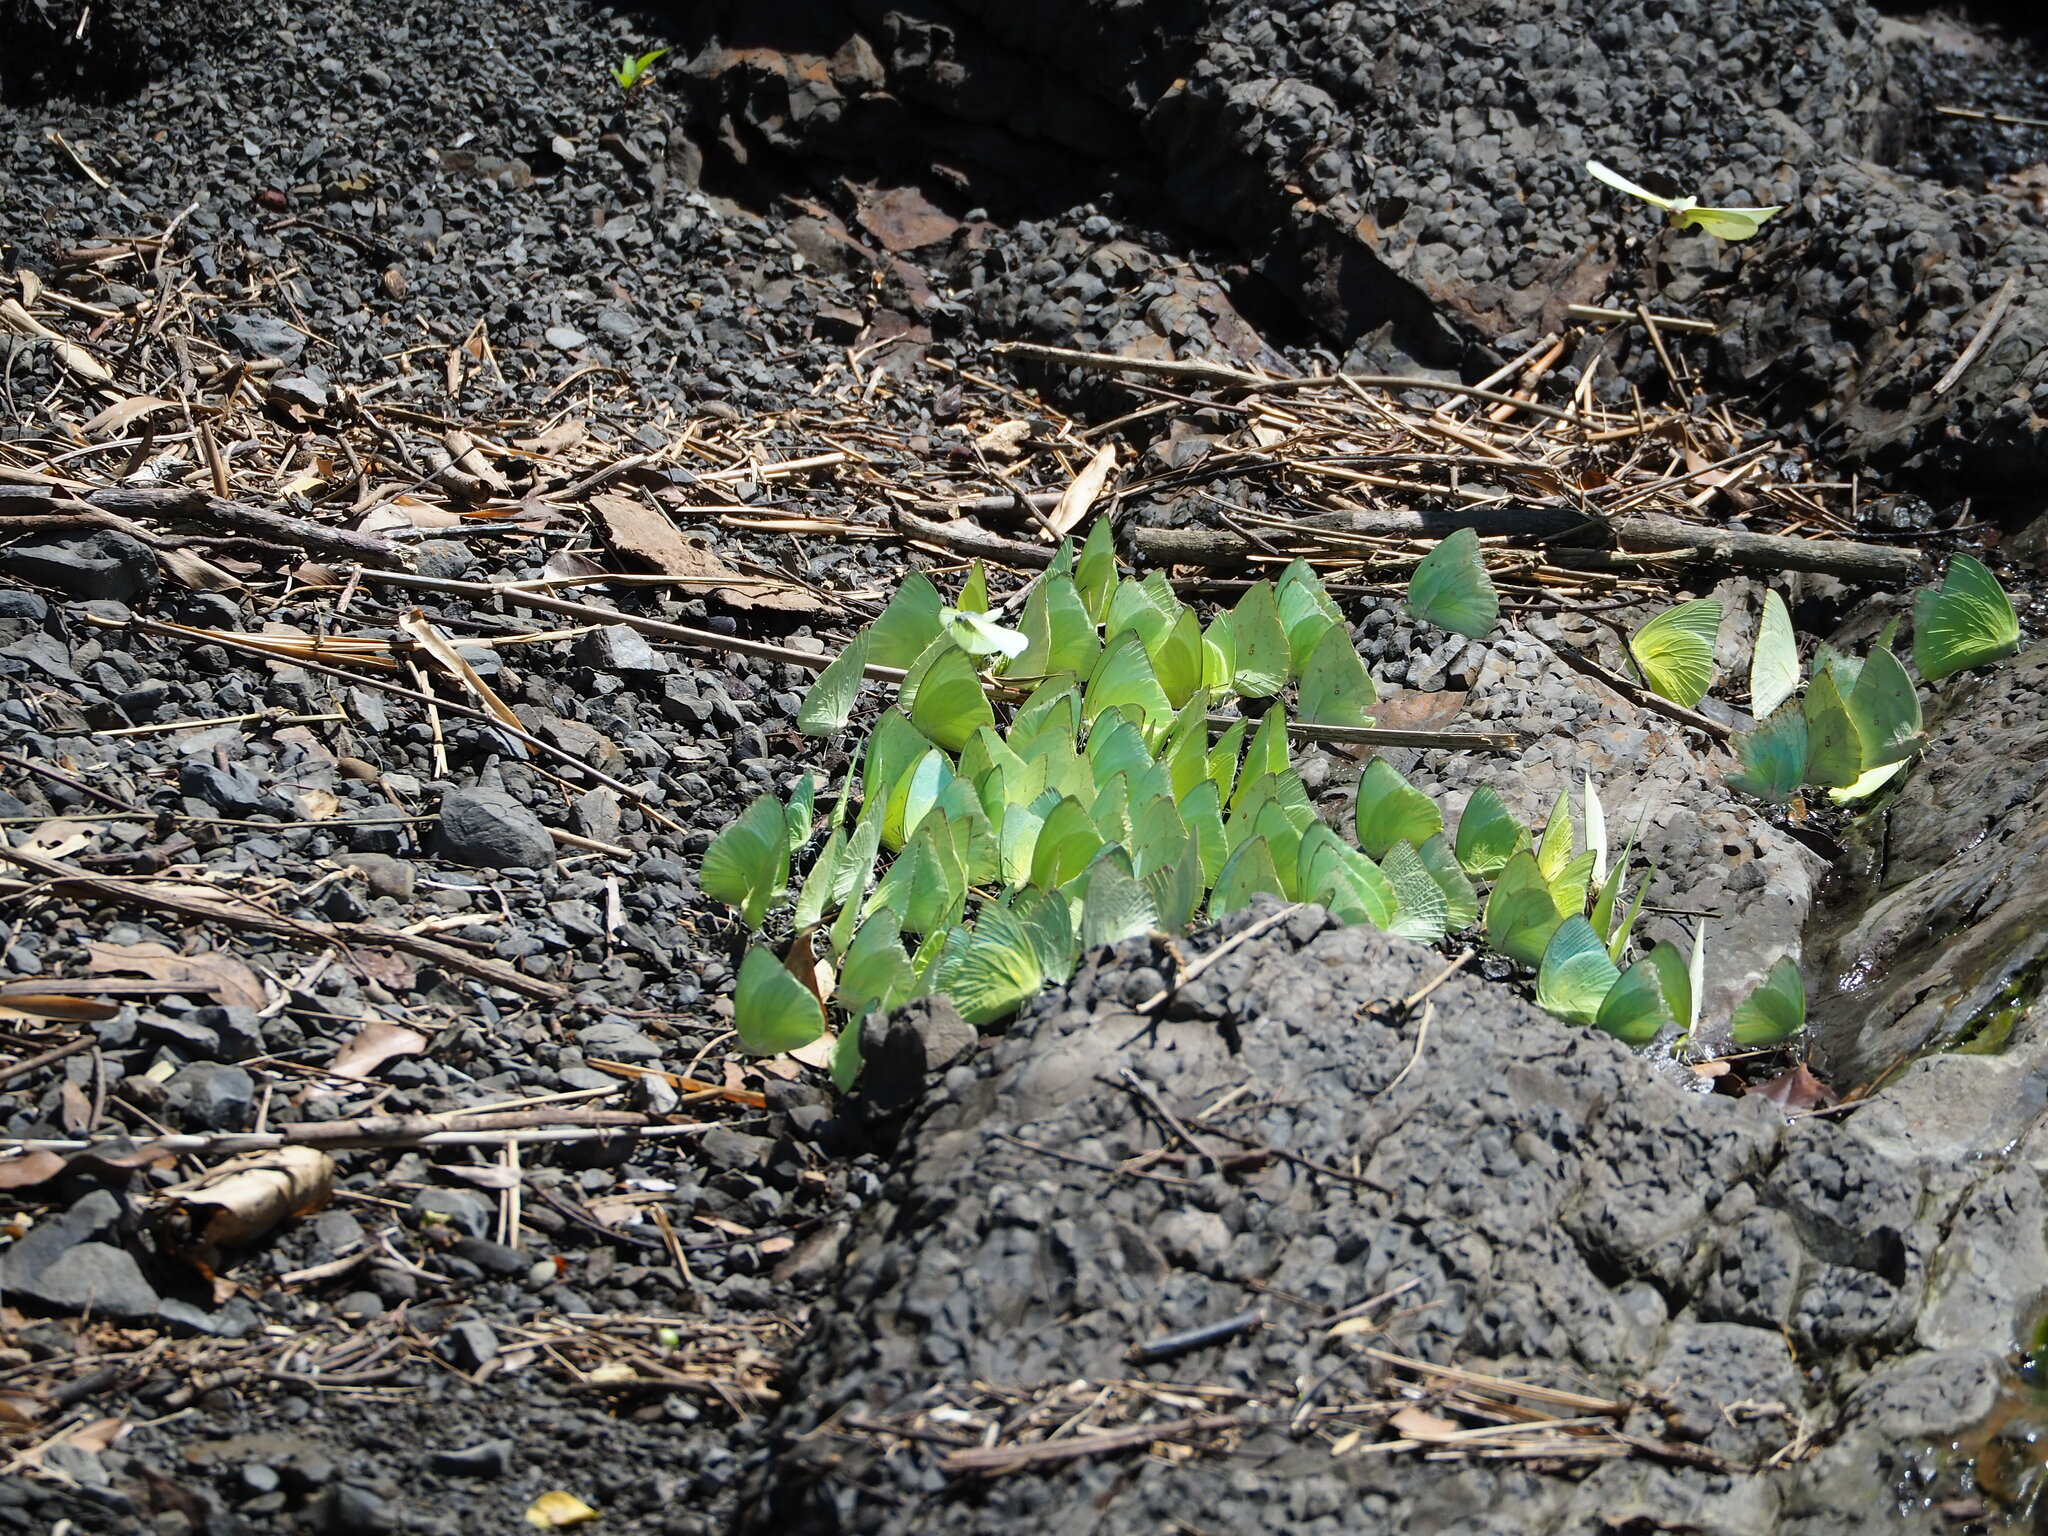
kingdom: Animalia
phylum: Arthropoda
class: Insecta
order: Lepidoptera
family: Pieridae
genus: Catopsilia
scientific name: Catopsilia pomona
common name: Common emigrant
